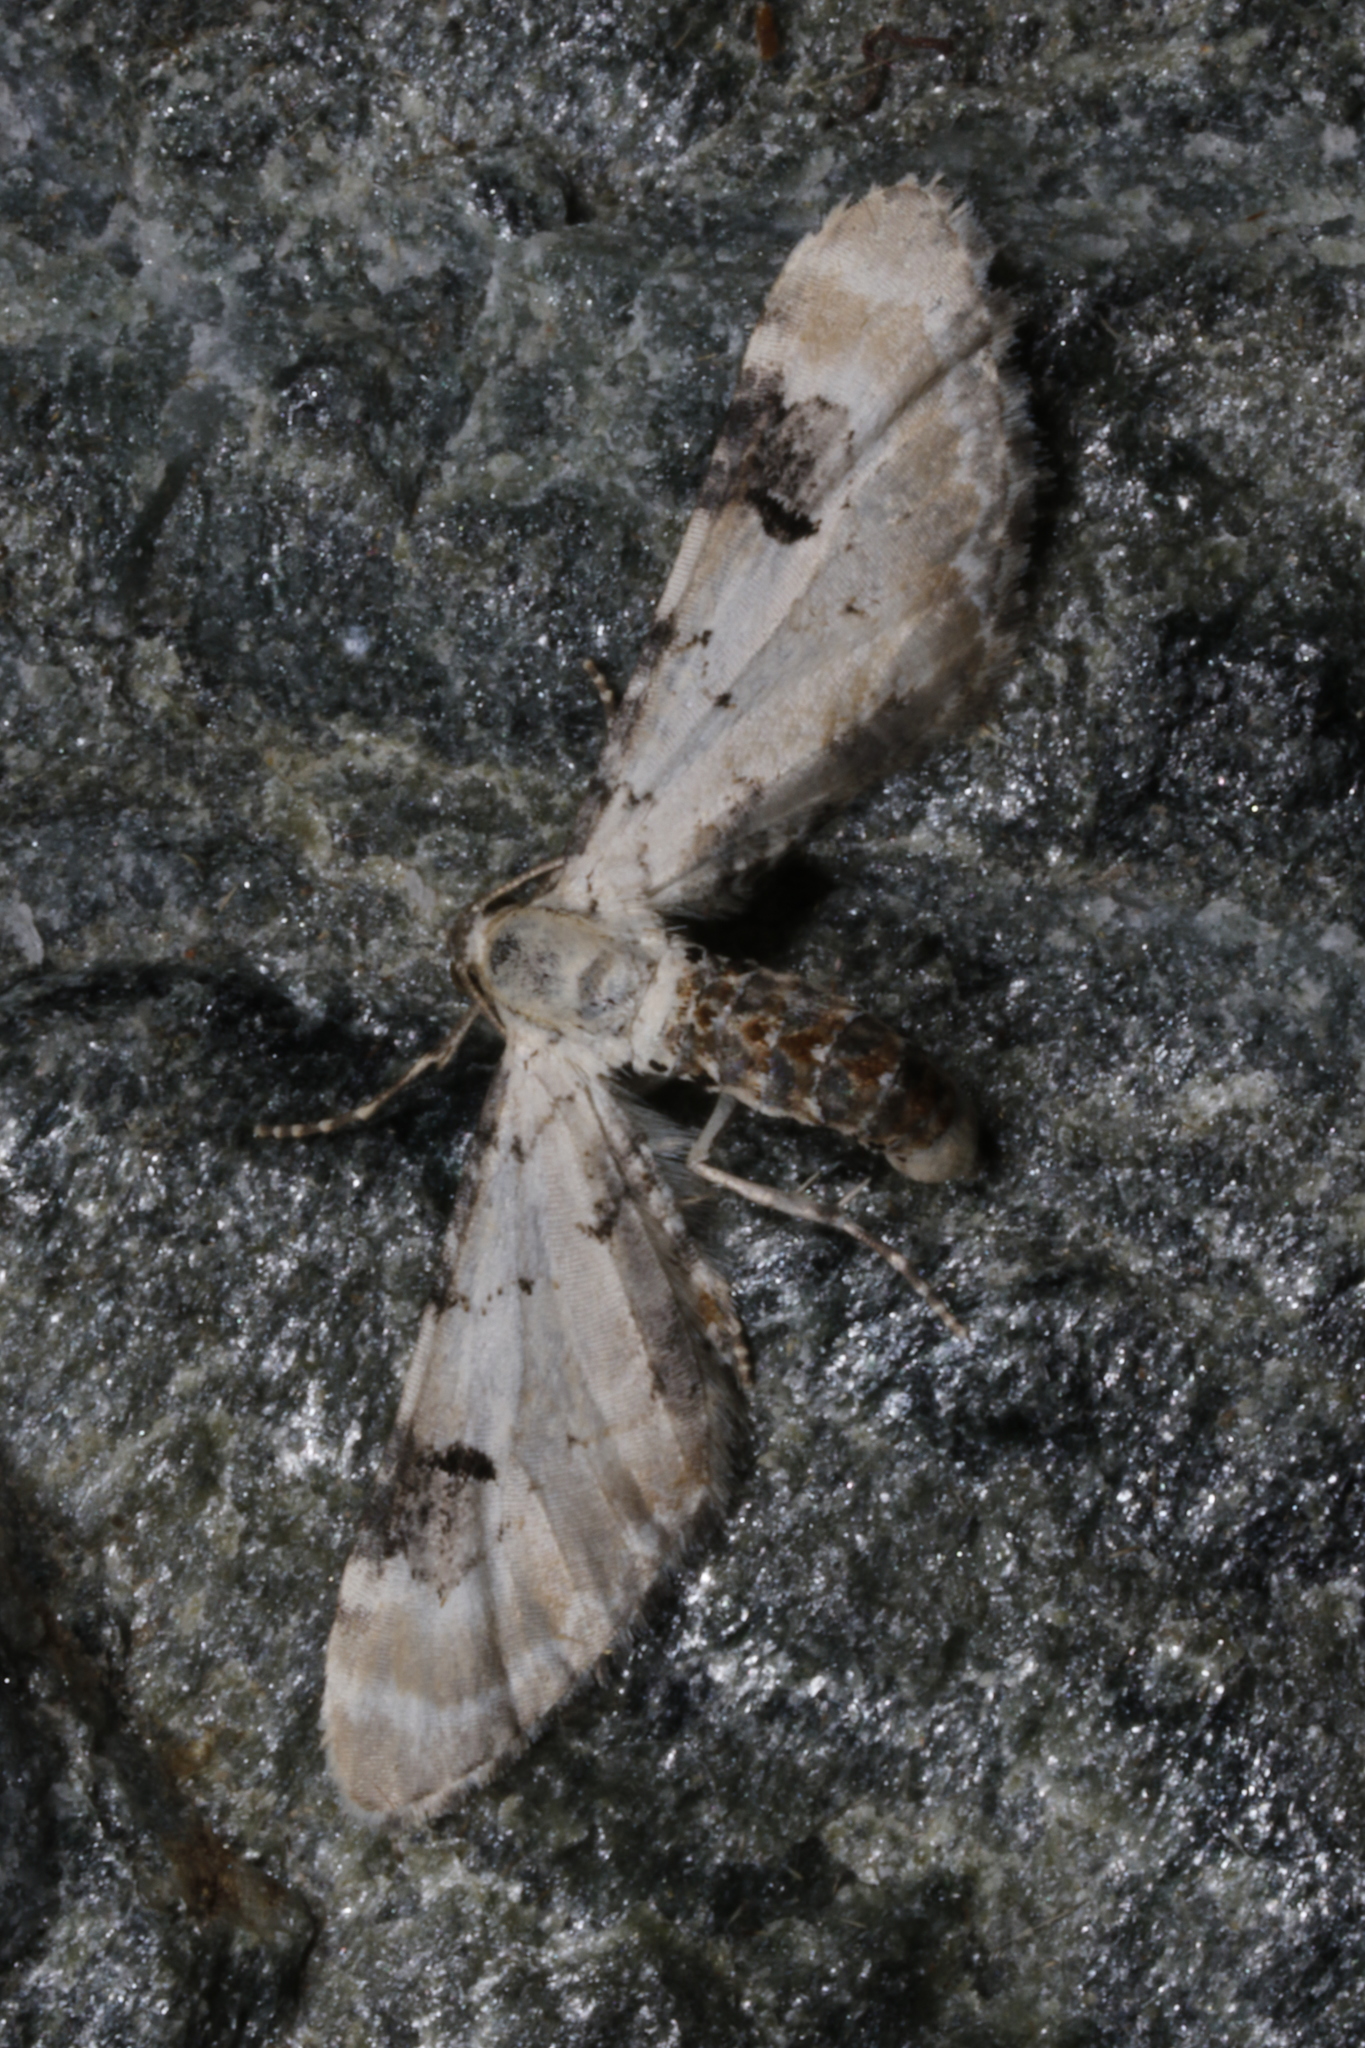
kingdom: Animalia
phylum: Arthropoda
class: Insecta
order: Lepidoptera
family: Geometridae
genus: Eupithecia
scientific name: Eupithecia centaureata
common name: Lime-speck pug
